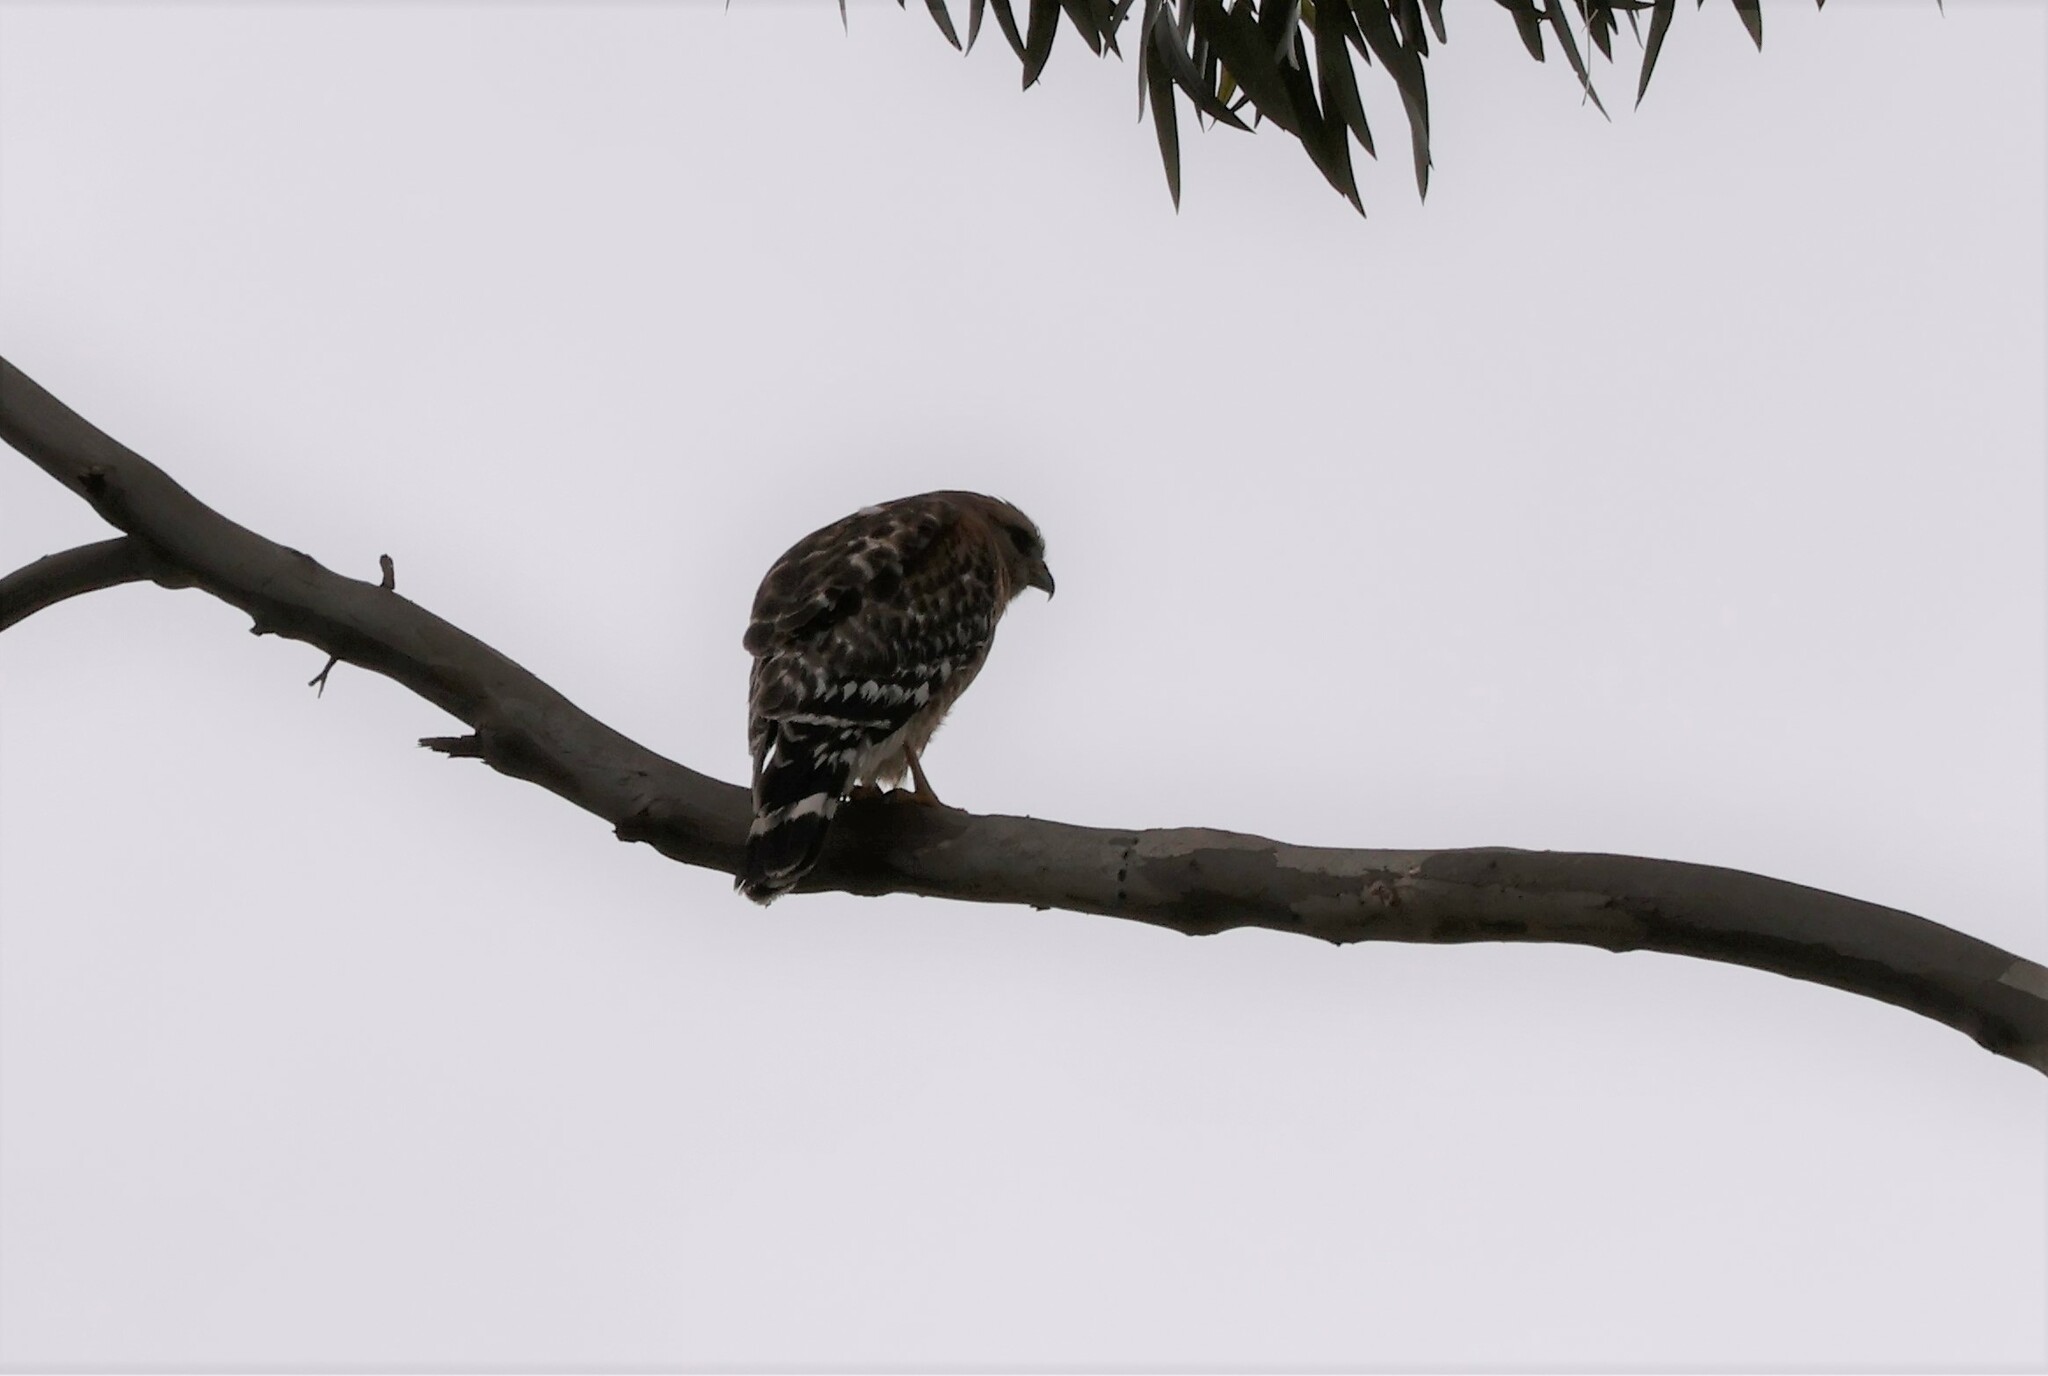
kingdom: Animalia
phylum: Chordata
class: Aves
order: Accipitriformes
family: Accipitridae
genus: Buteo
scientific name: Buteo lineatus
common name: Red-shouldered hawk
